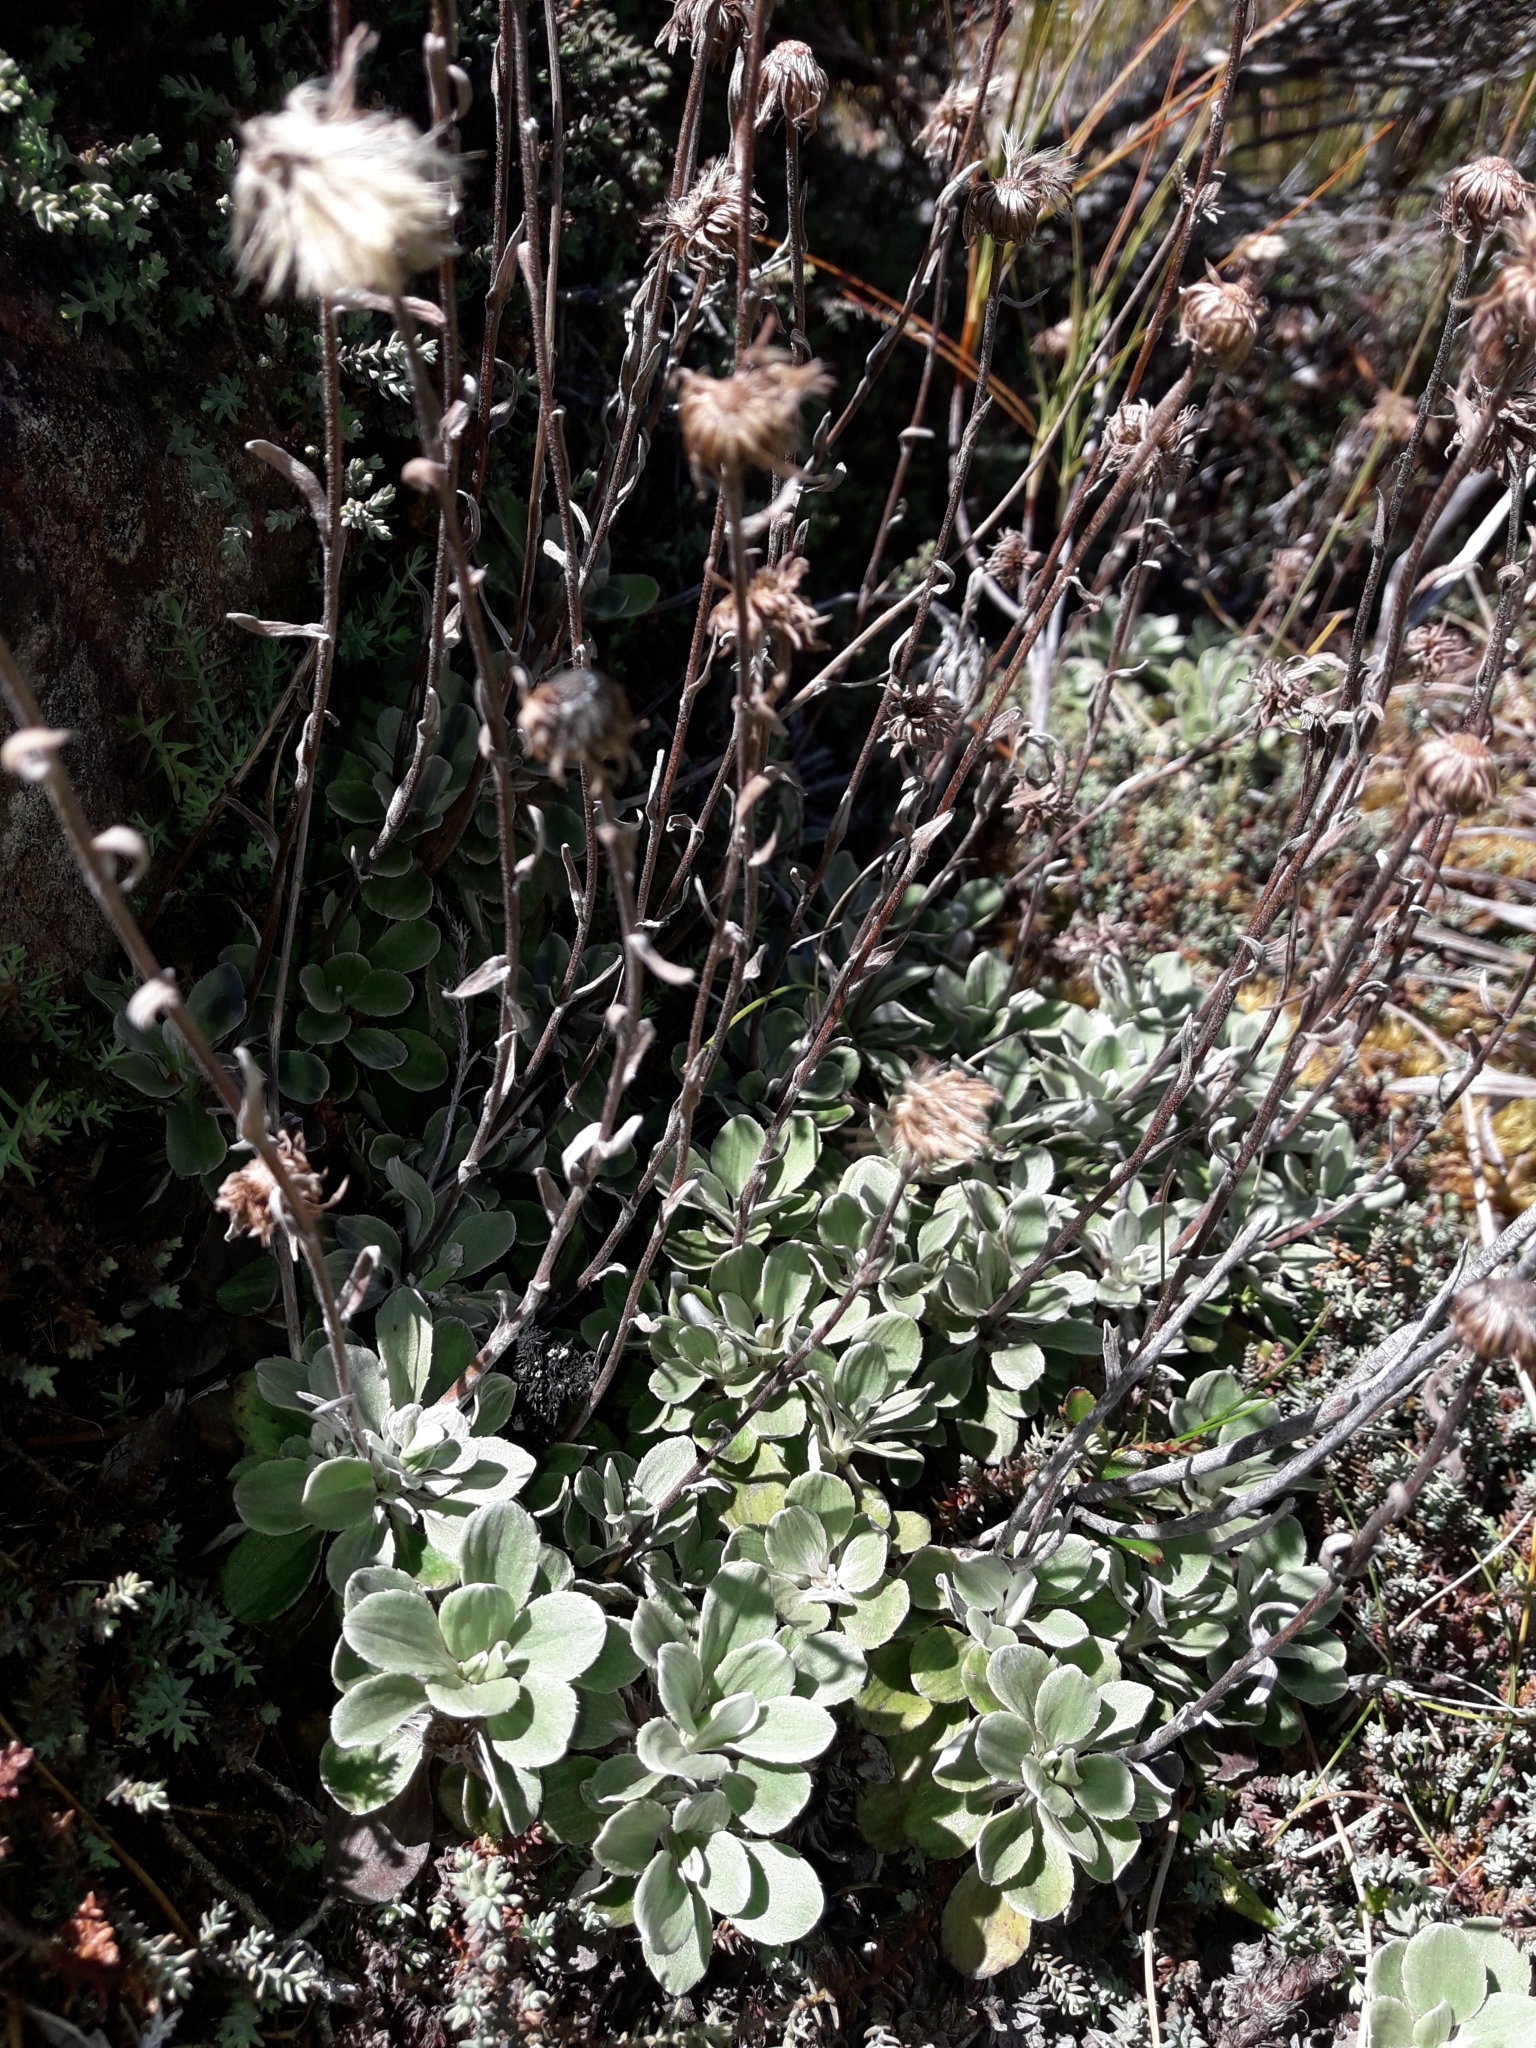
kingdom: Plantae
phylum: Tracheophyta
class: Magnoliopsida
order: Asterales
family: Asteraceae
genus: Celmisia
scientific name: Celmisia discolor
